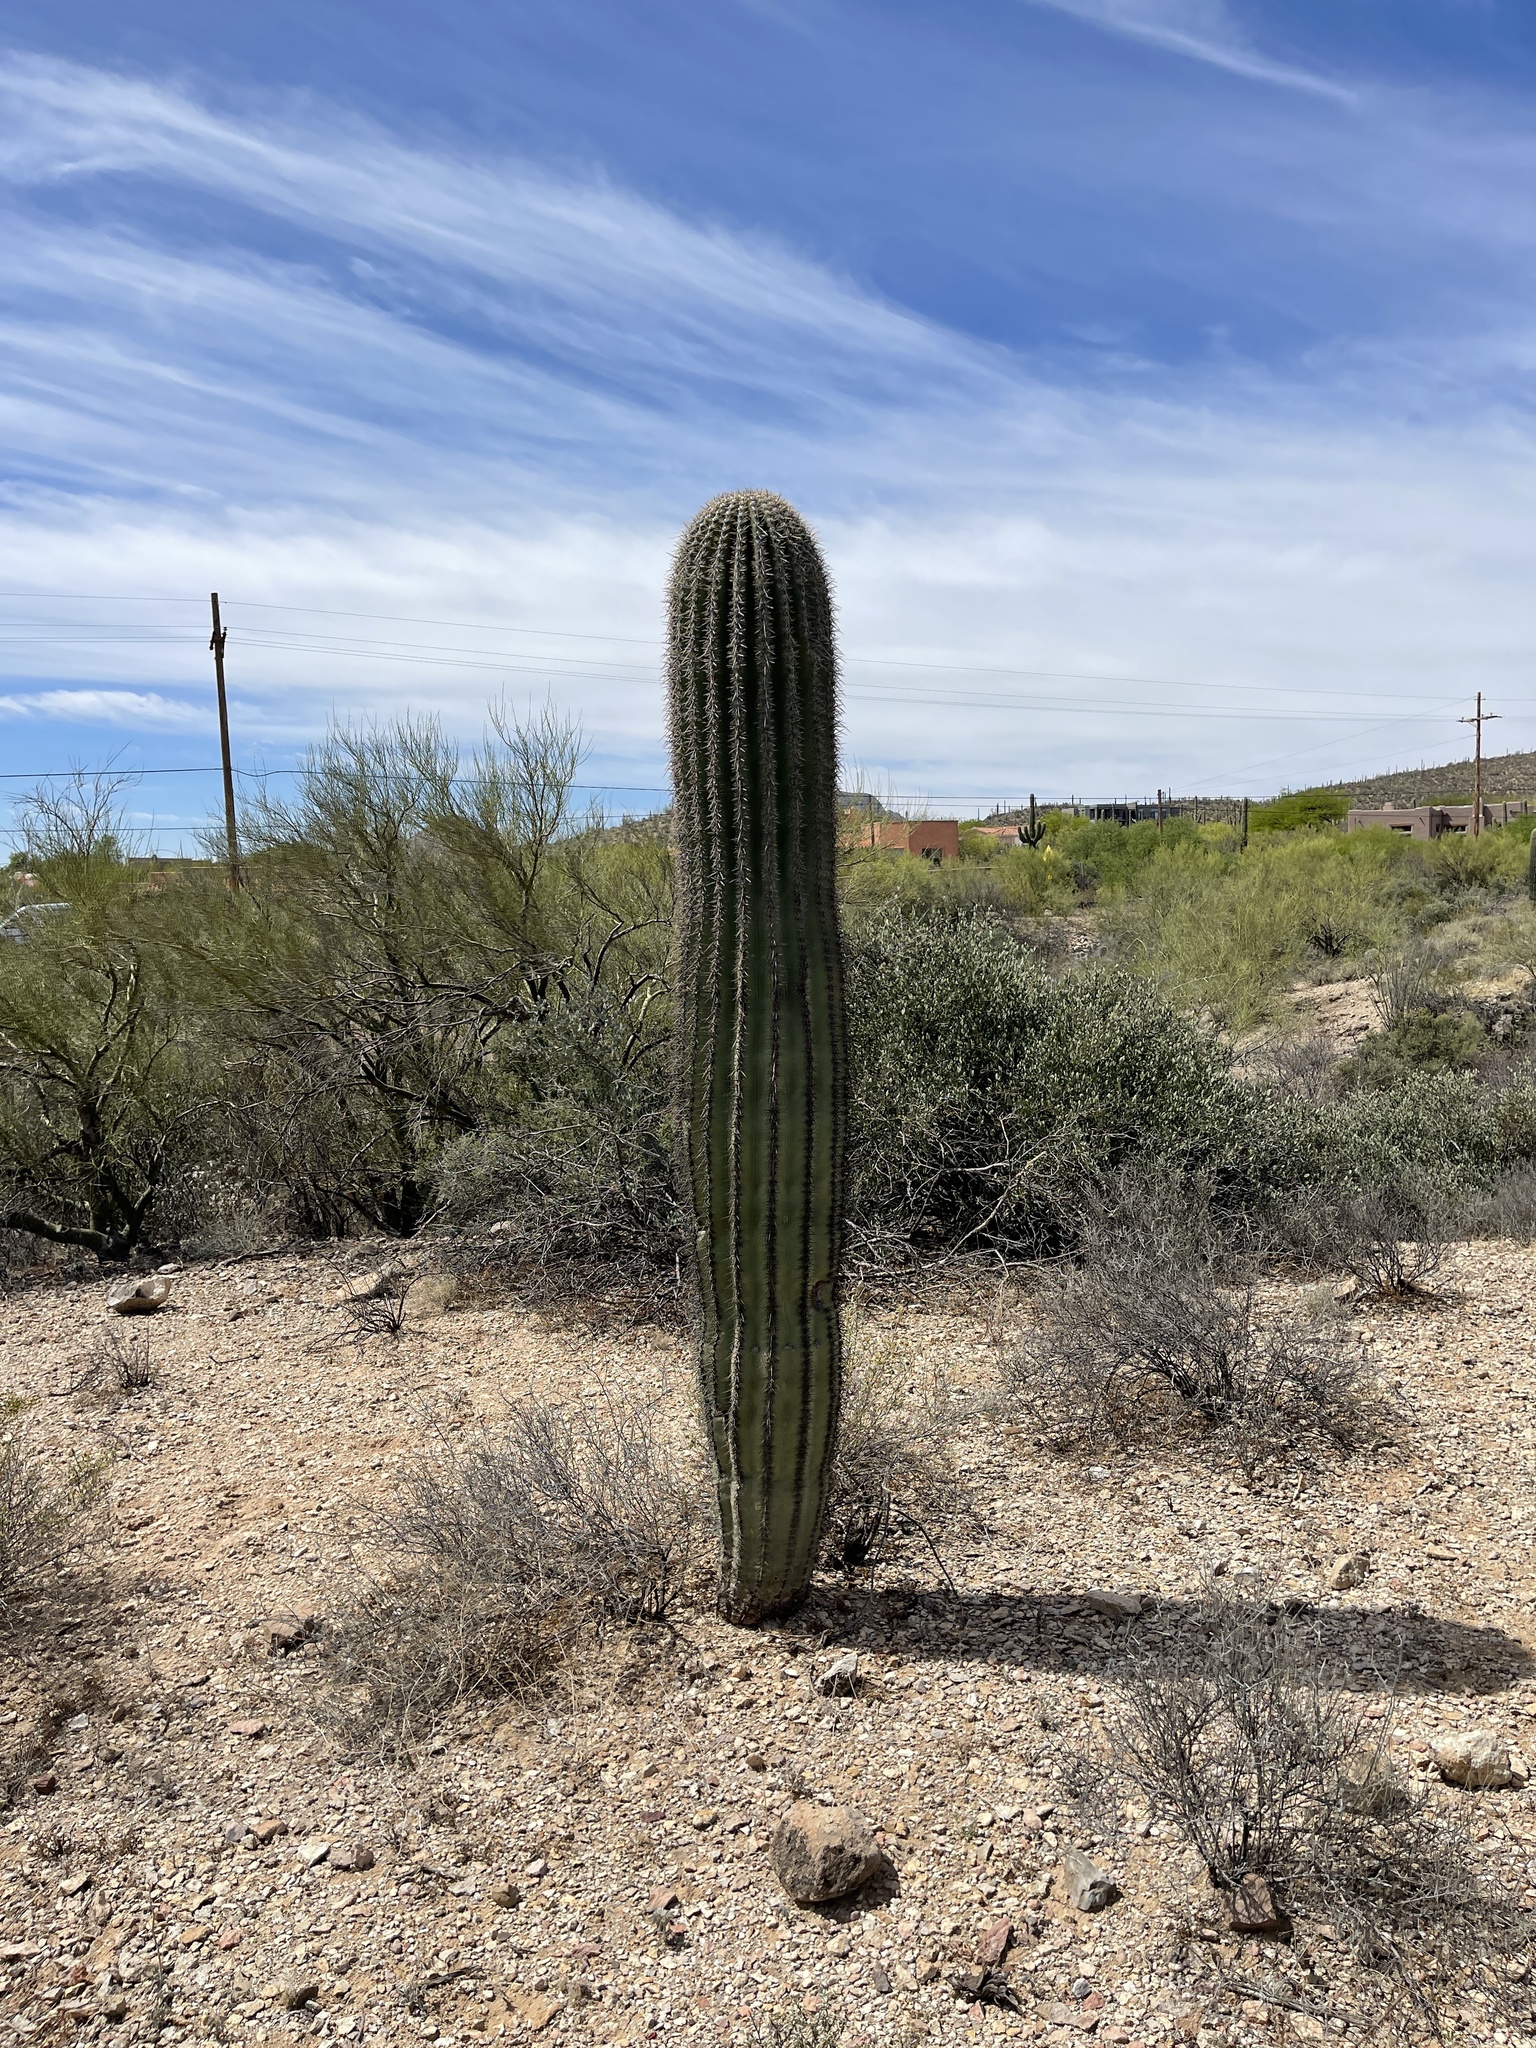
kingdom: Plantae
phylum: Tracheophyta
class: Magnoliopsida
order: Caryophyllales
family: Cactaceae
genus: Carnegiea
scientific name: Carnegiea gigantea
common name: Saguaro
